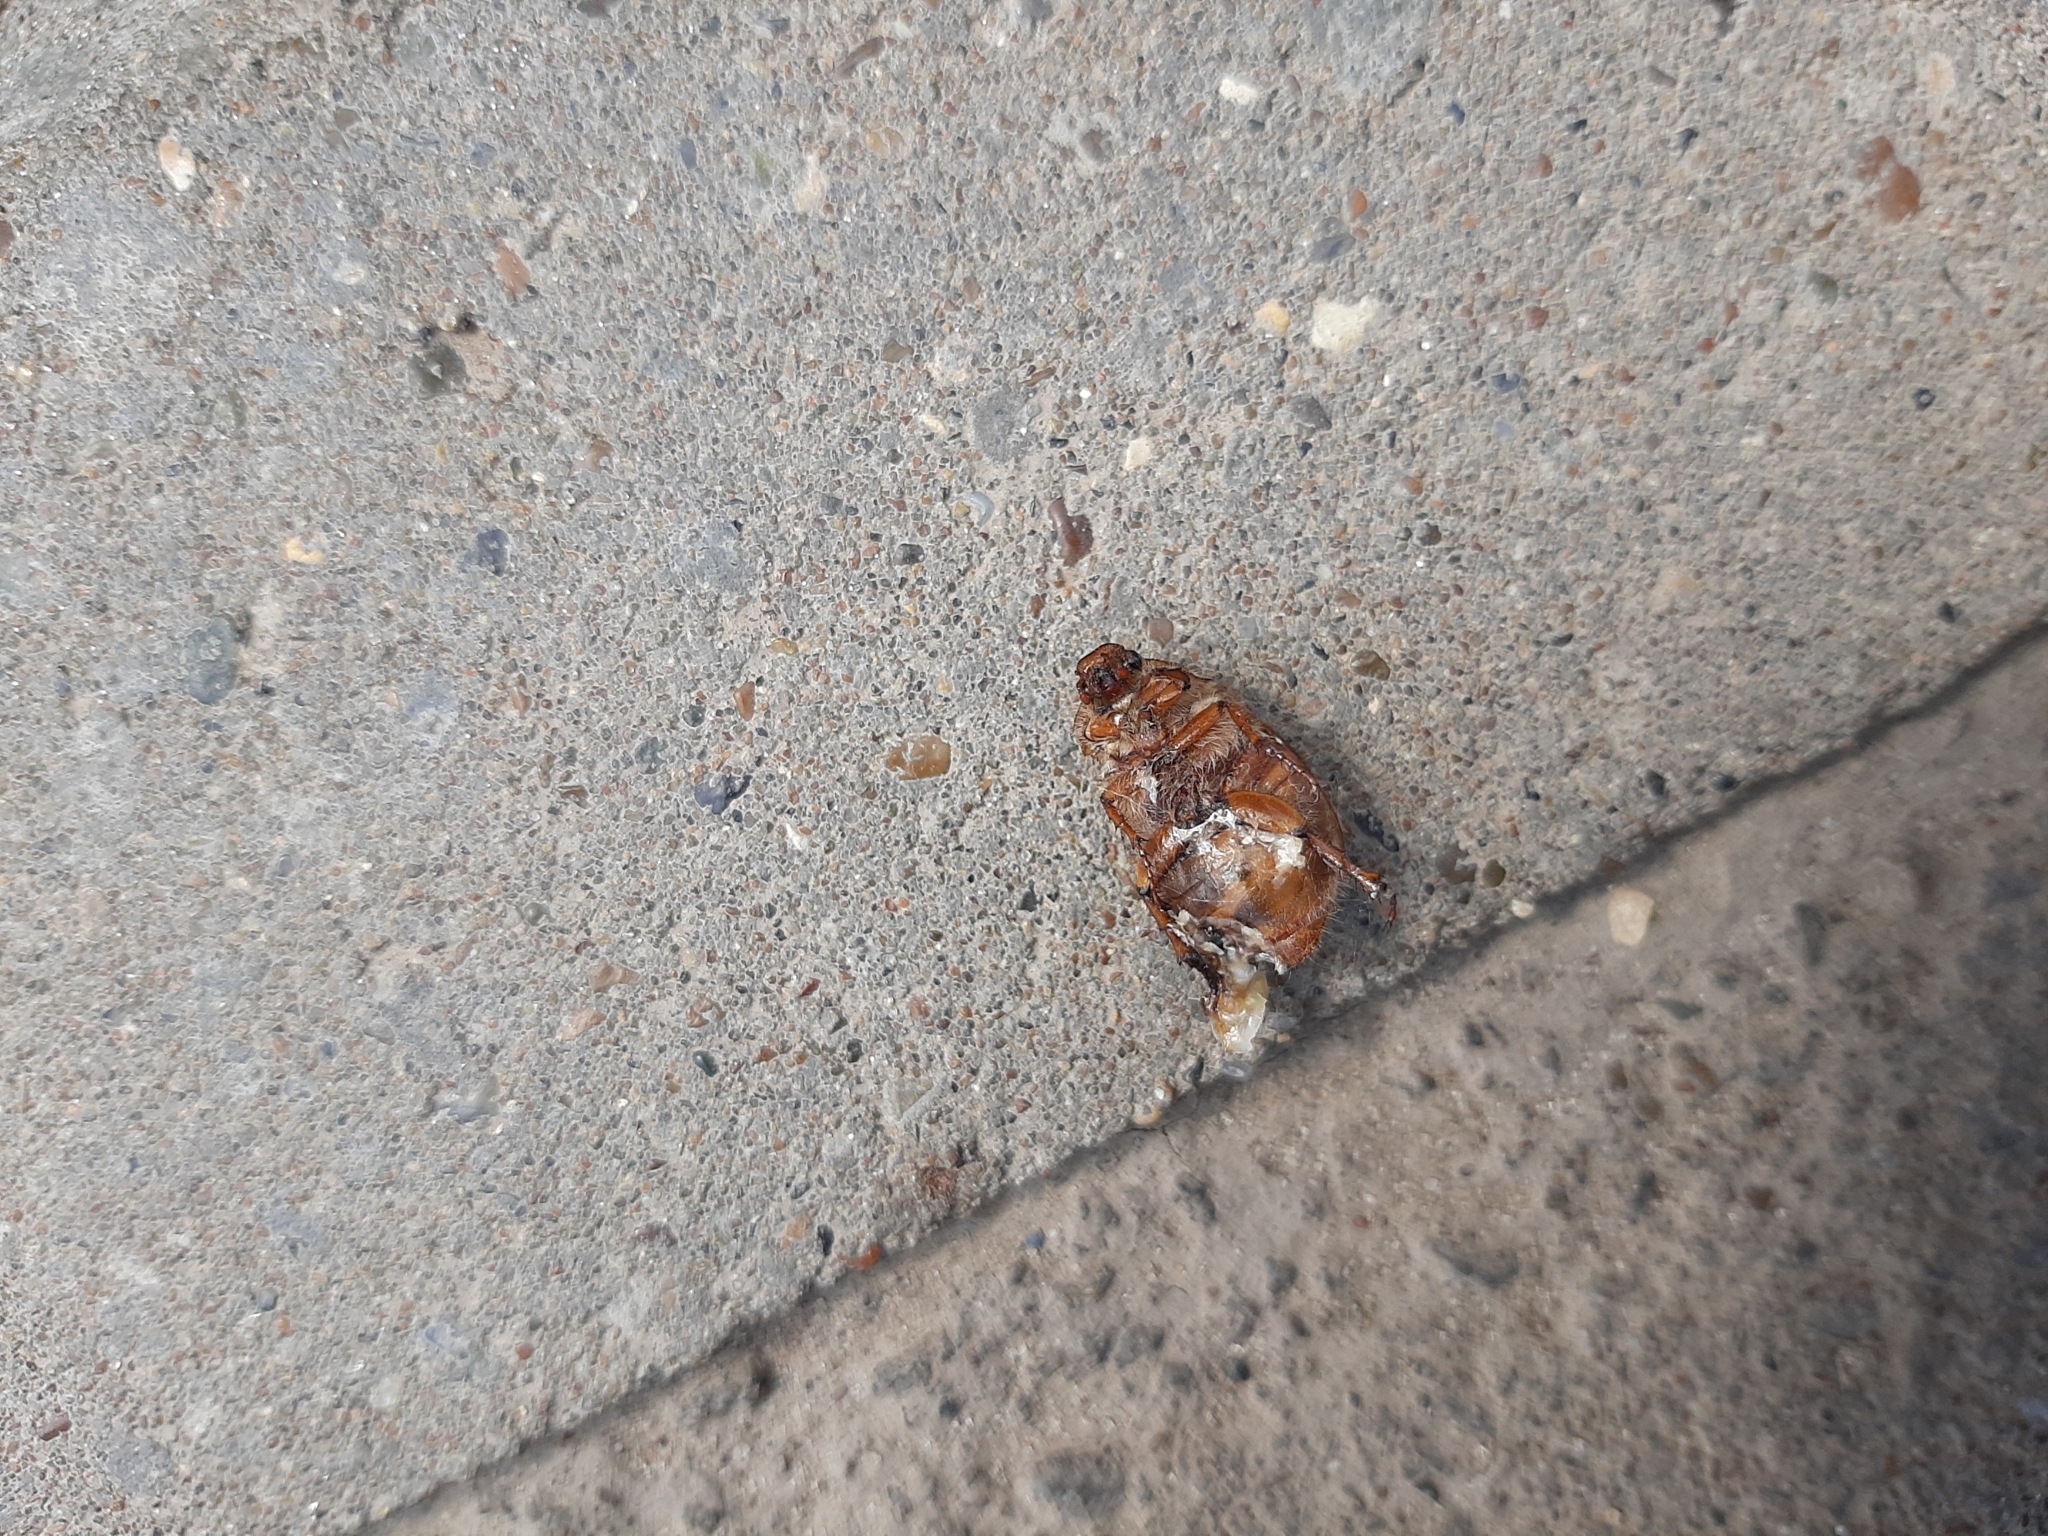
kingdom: Animalia
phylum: Arthropoda
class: Insecta
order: Coleoptera
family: Scarabaeidae
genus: Amphimallon
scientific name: Amphimallon solstitiale
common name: Summer chafer
